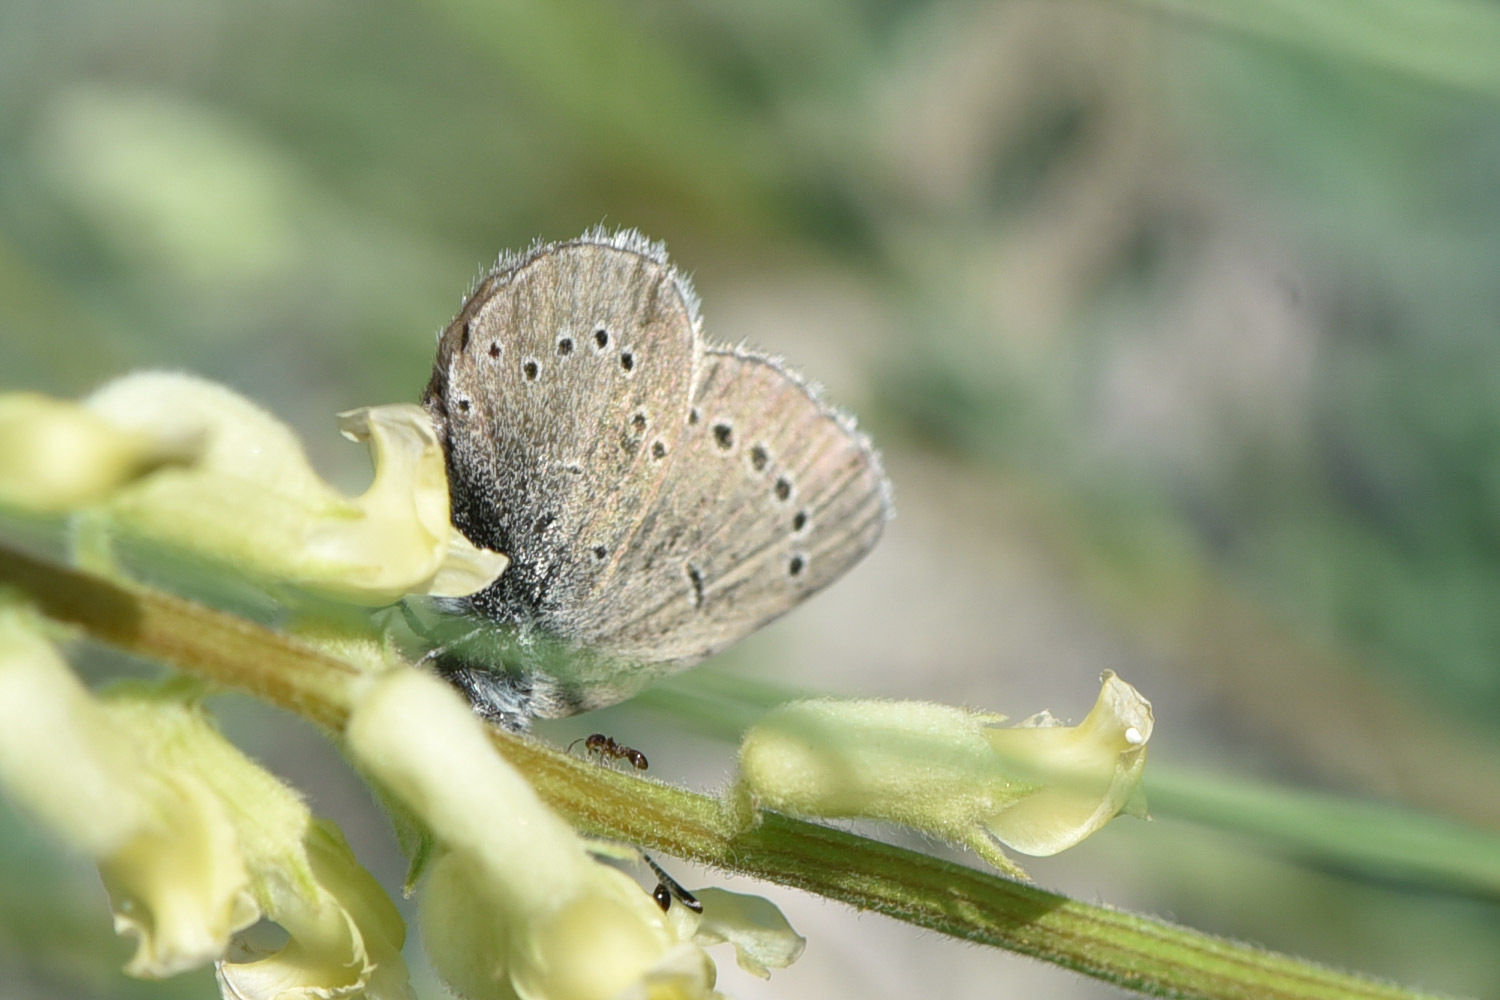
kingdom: Animalia
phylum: Arthropoda
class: Insecta
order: Lepidoptera
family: Lycaenidae
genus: Glaucopsyche
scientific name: Glaucopsyche lygdamus
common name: Silvery blue
